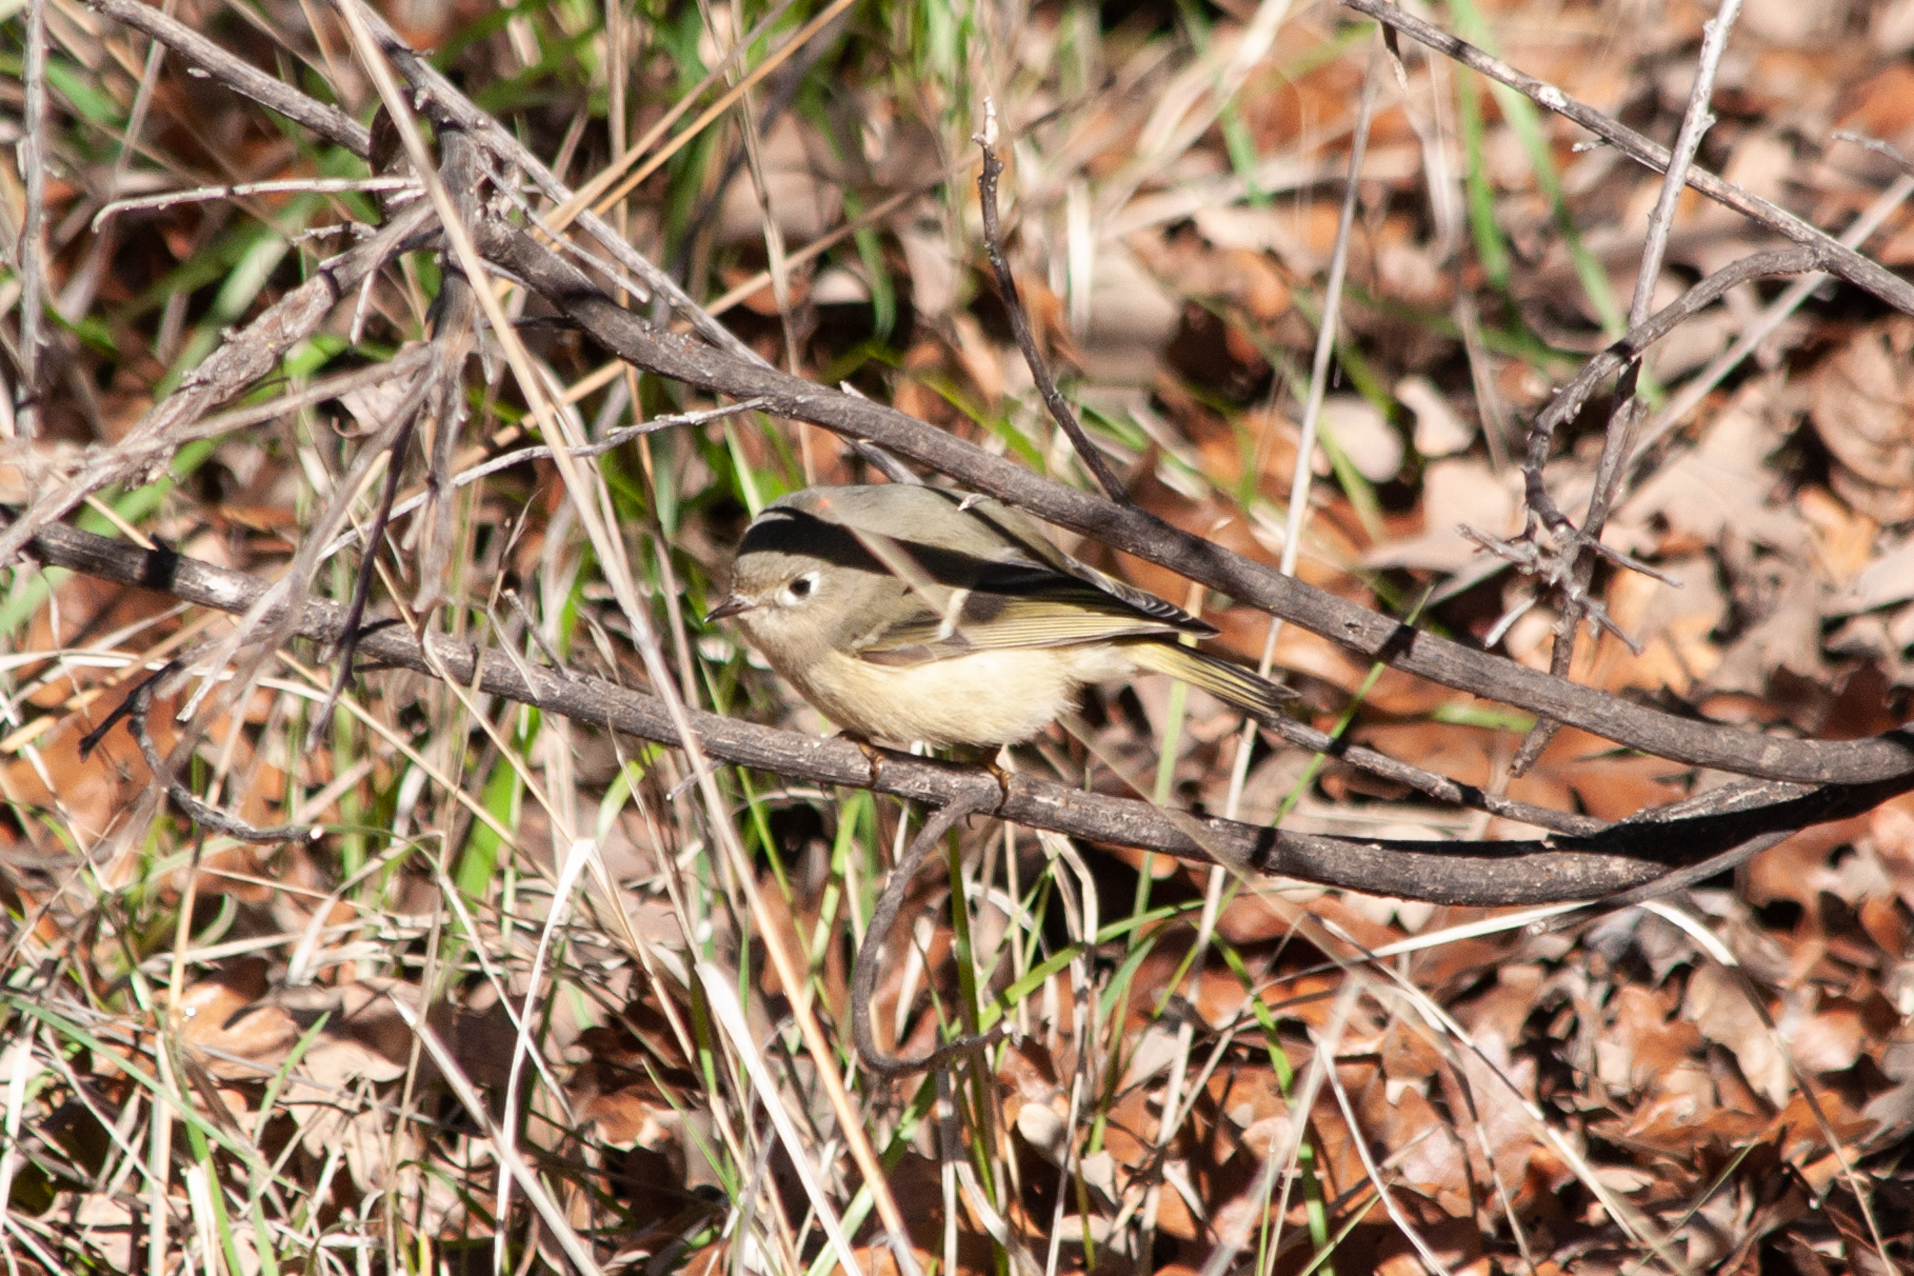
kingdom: Animalia
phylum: Chordata
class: Aves
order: Passeriformes
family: Regulidae
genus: Regulus
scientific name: Regulus calendula
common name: Ruby-crowned kinglet
